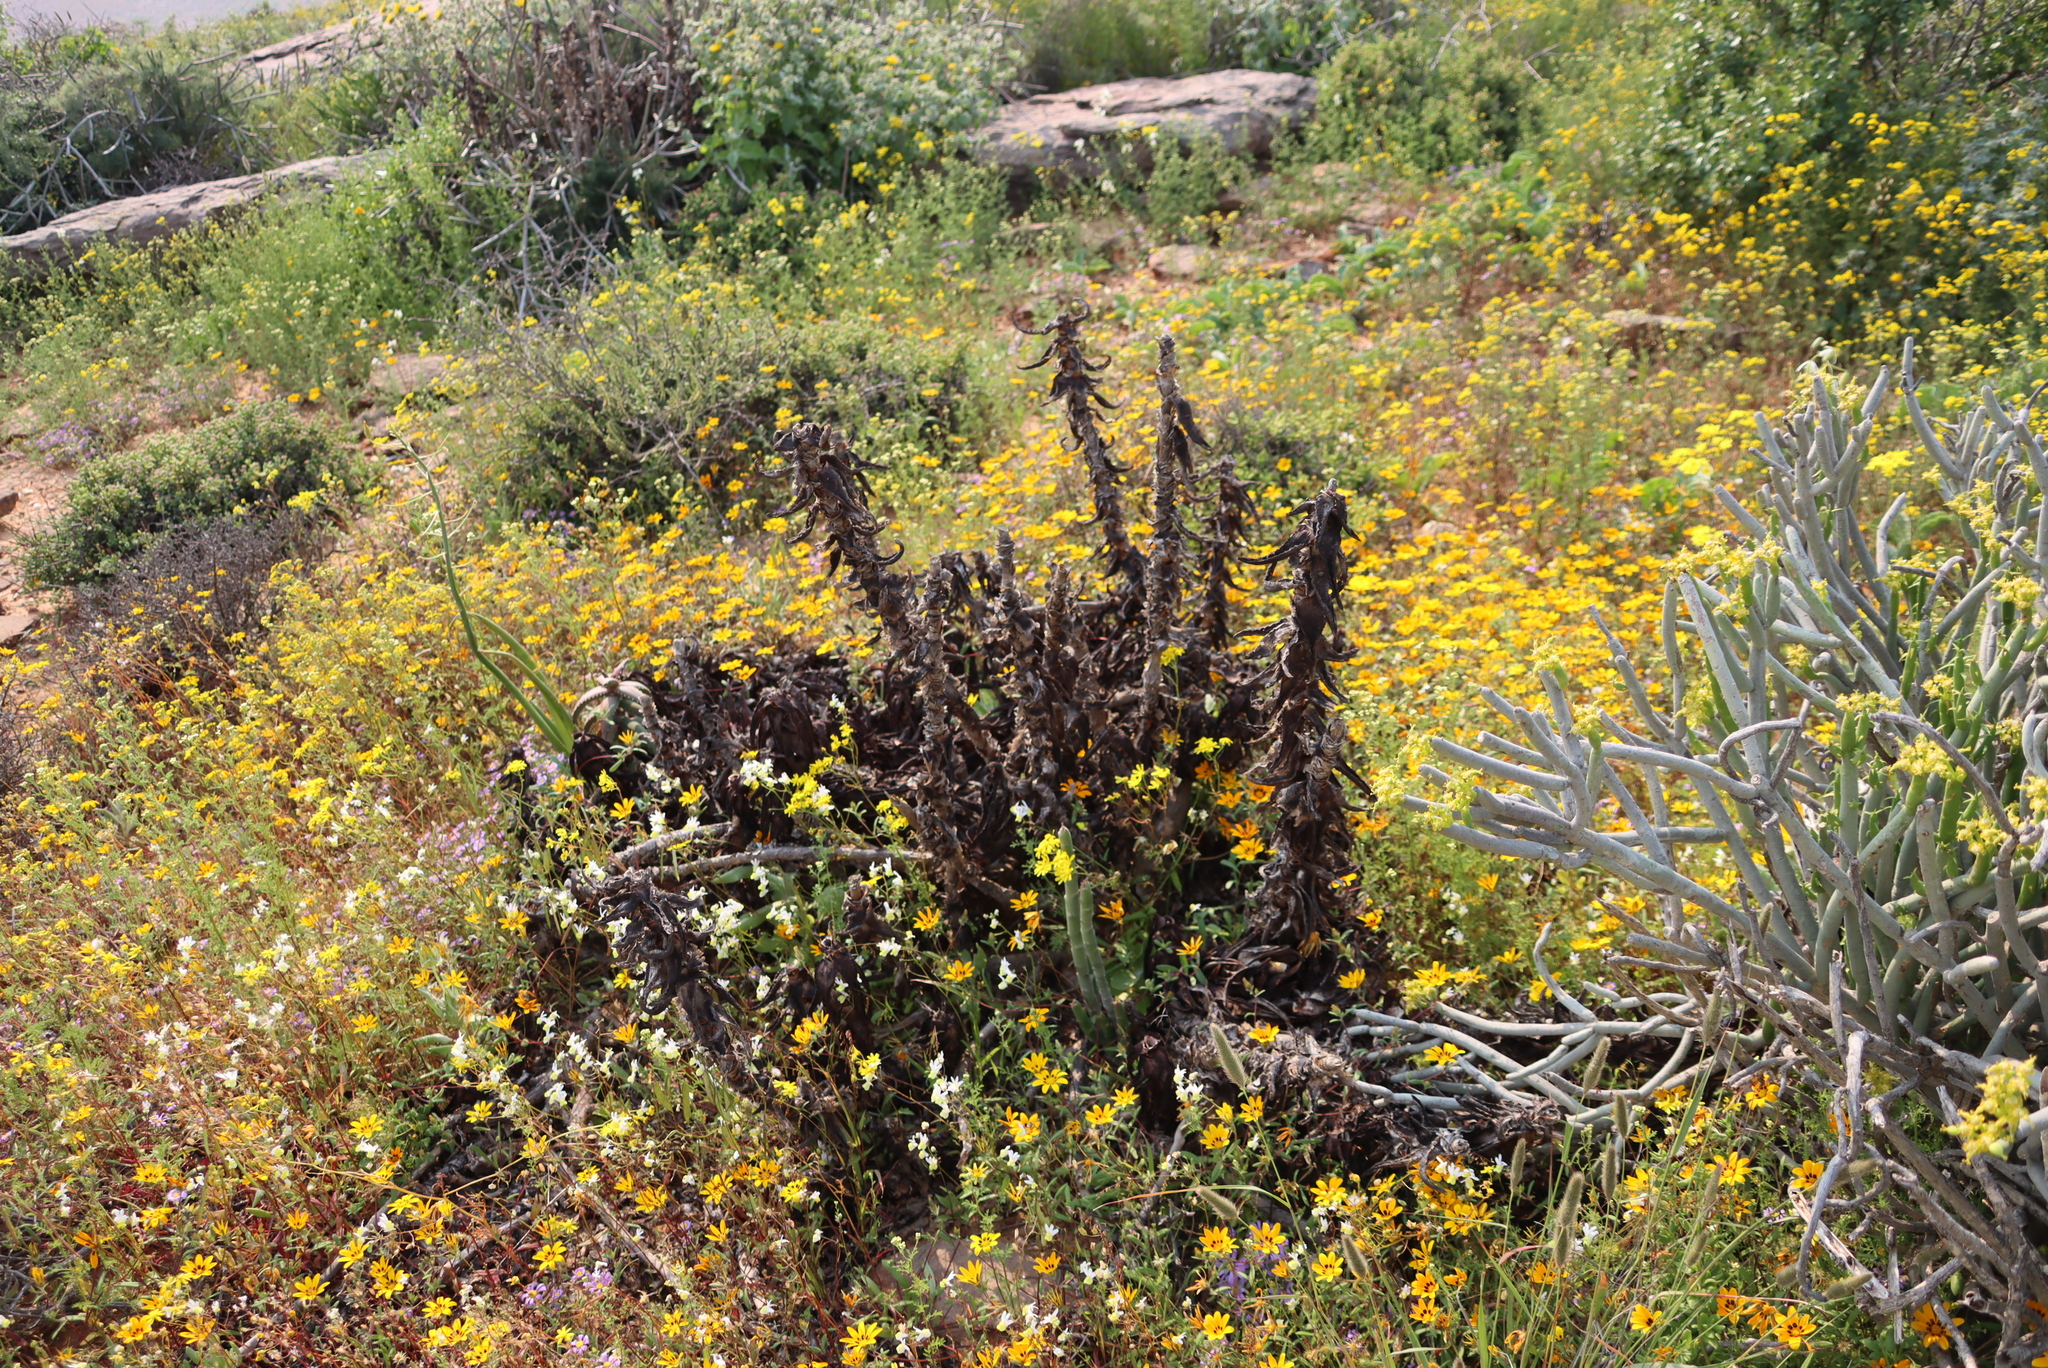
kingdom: Plantae
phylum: Tracheophyta
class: Liliopsida
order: Asparagales
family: Asphodelaceae
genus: Aloe
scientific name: Aloe pearsonii
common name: Pearson's aloe
